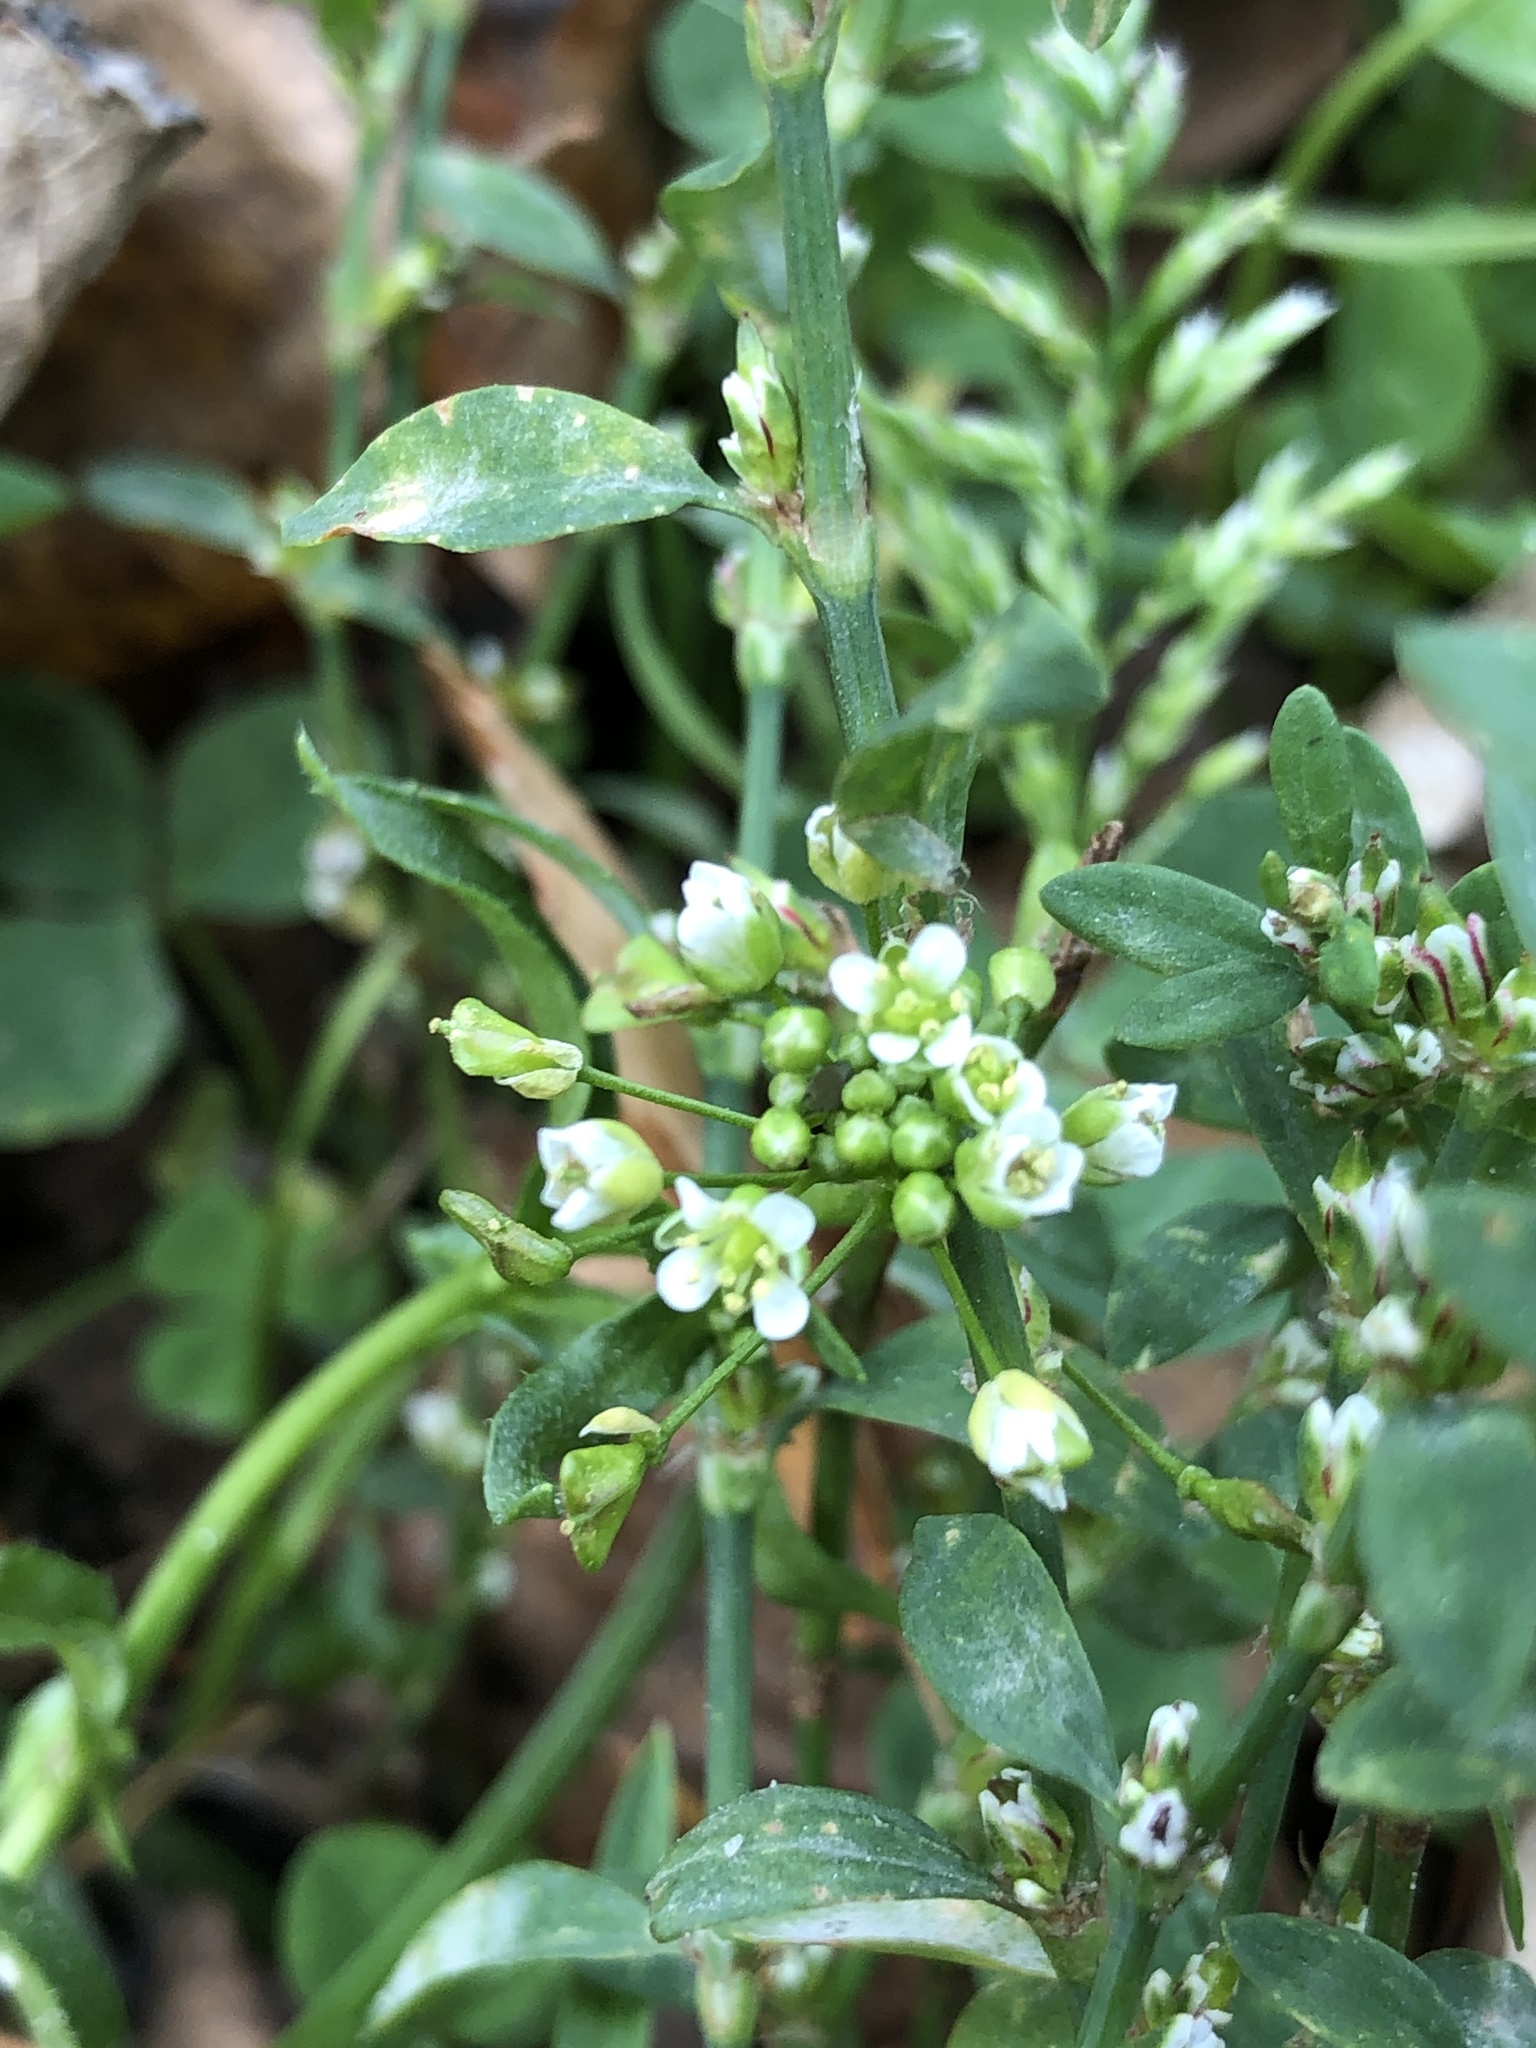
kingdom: Plantae
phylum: Tracheophyta
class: Magnoliopsida
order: Caryophyllales
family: Polygonaceae
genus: Polygonum
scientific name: Polygonum
